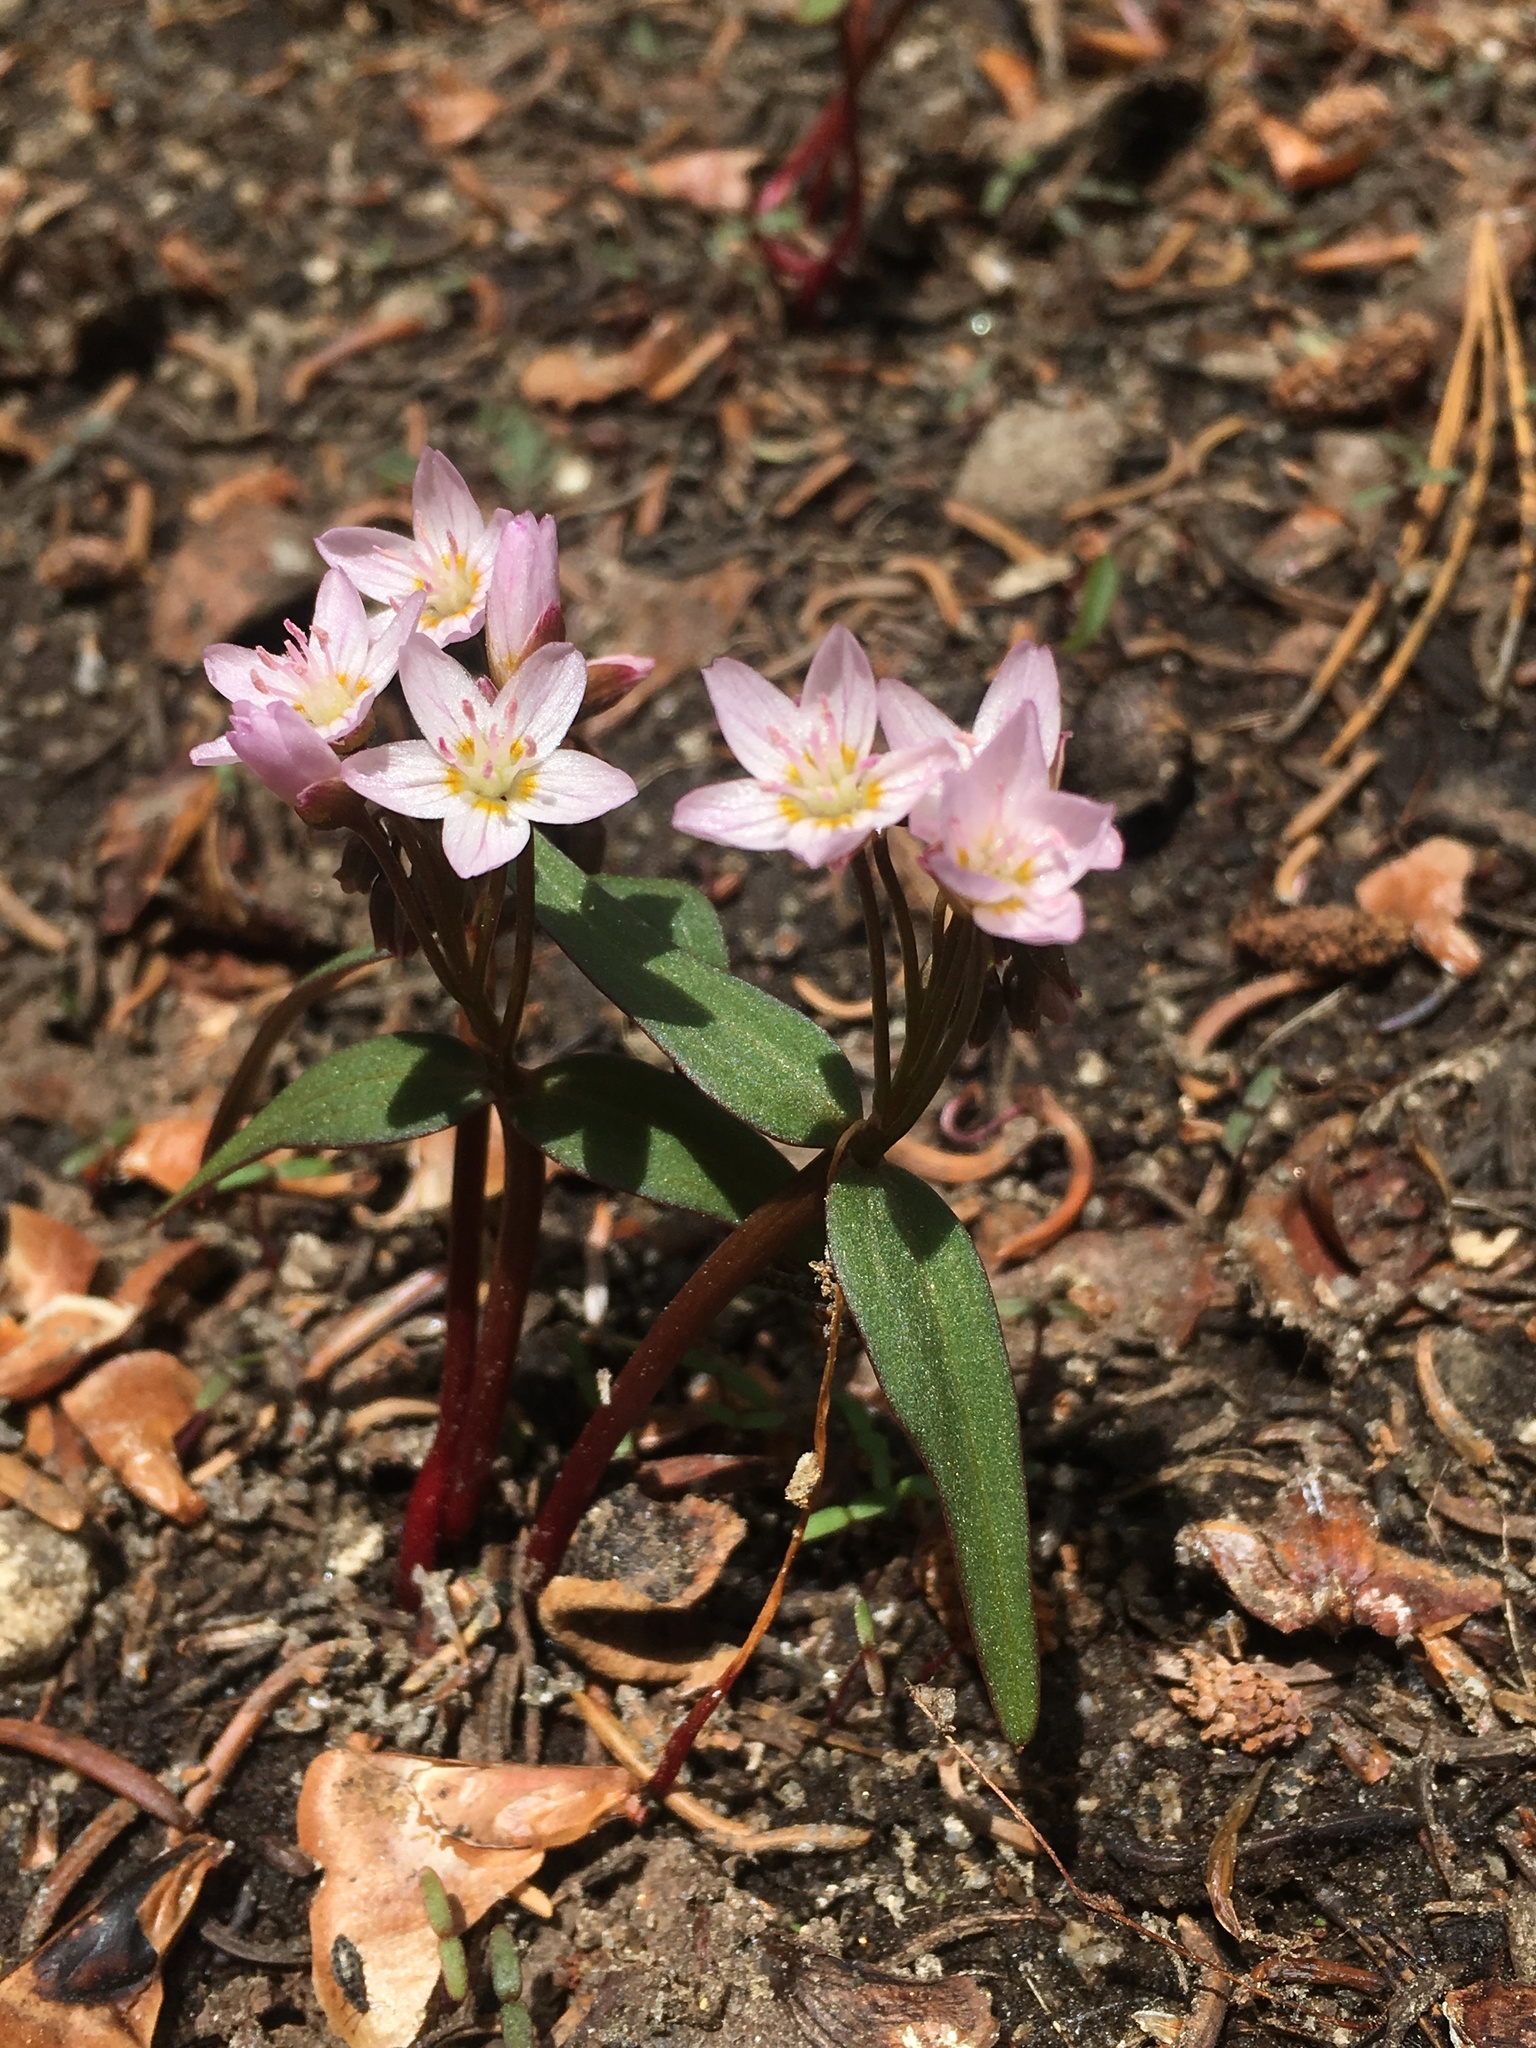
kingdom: Plantae
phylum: Tracheophyta
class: Magnoliopsida
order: Caryophyllales
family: Montiaceae
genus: Claytonia
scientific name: Claytonia lanceolata
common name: Western spring-beauty
